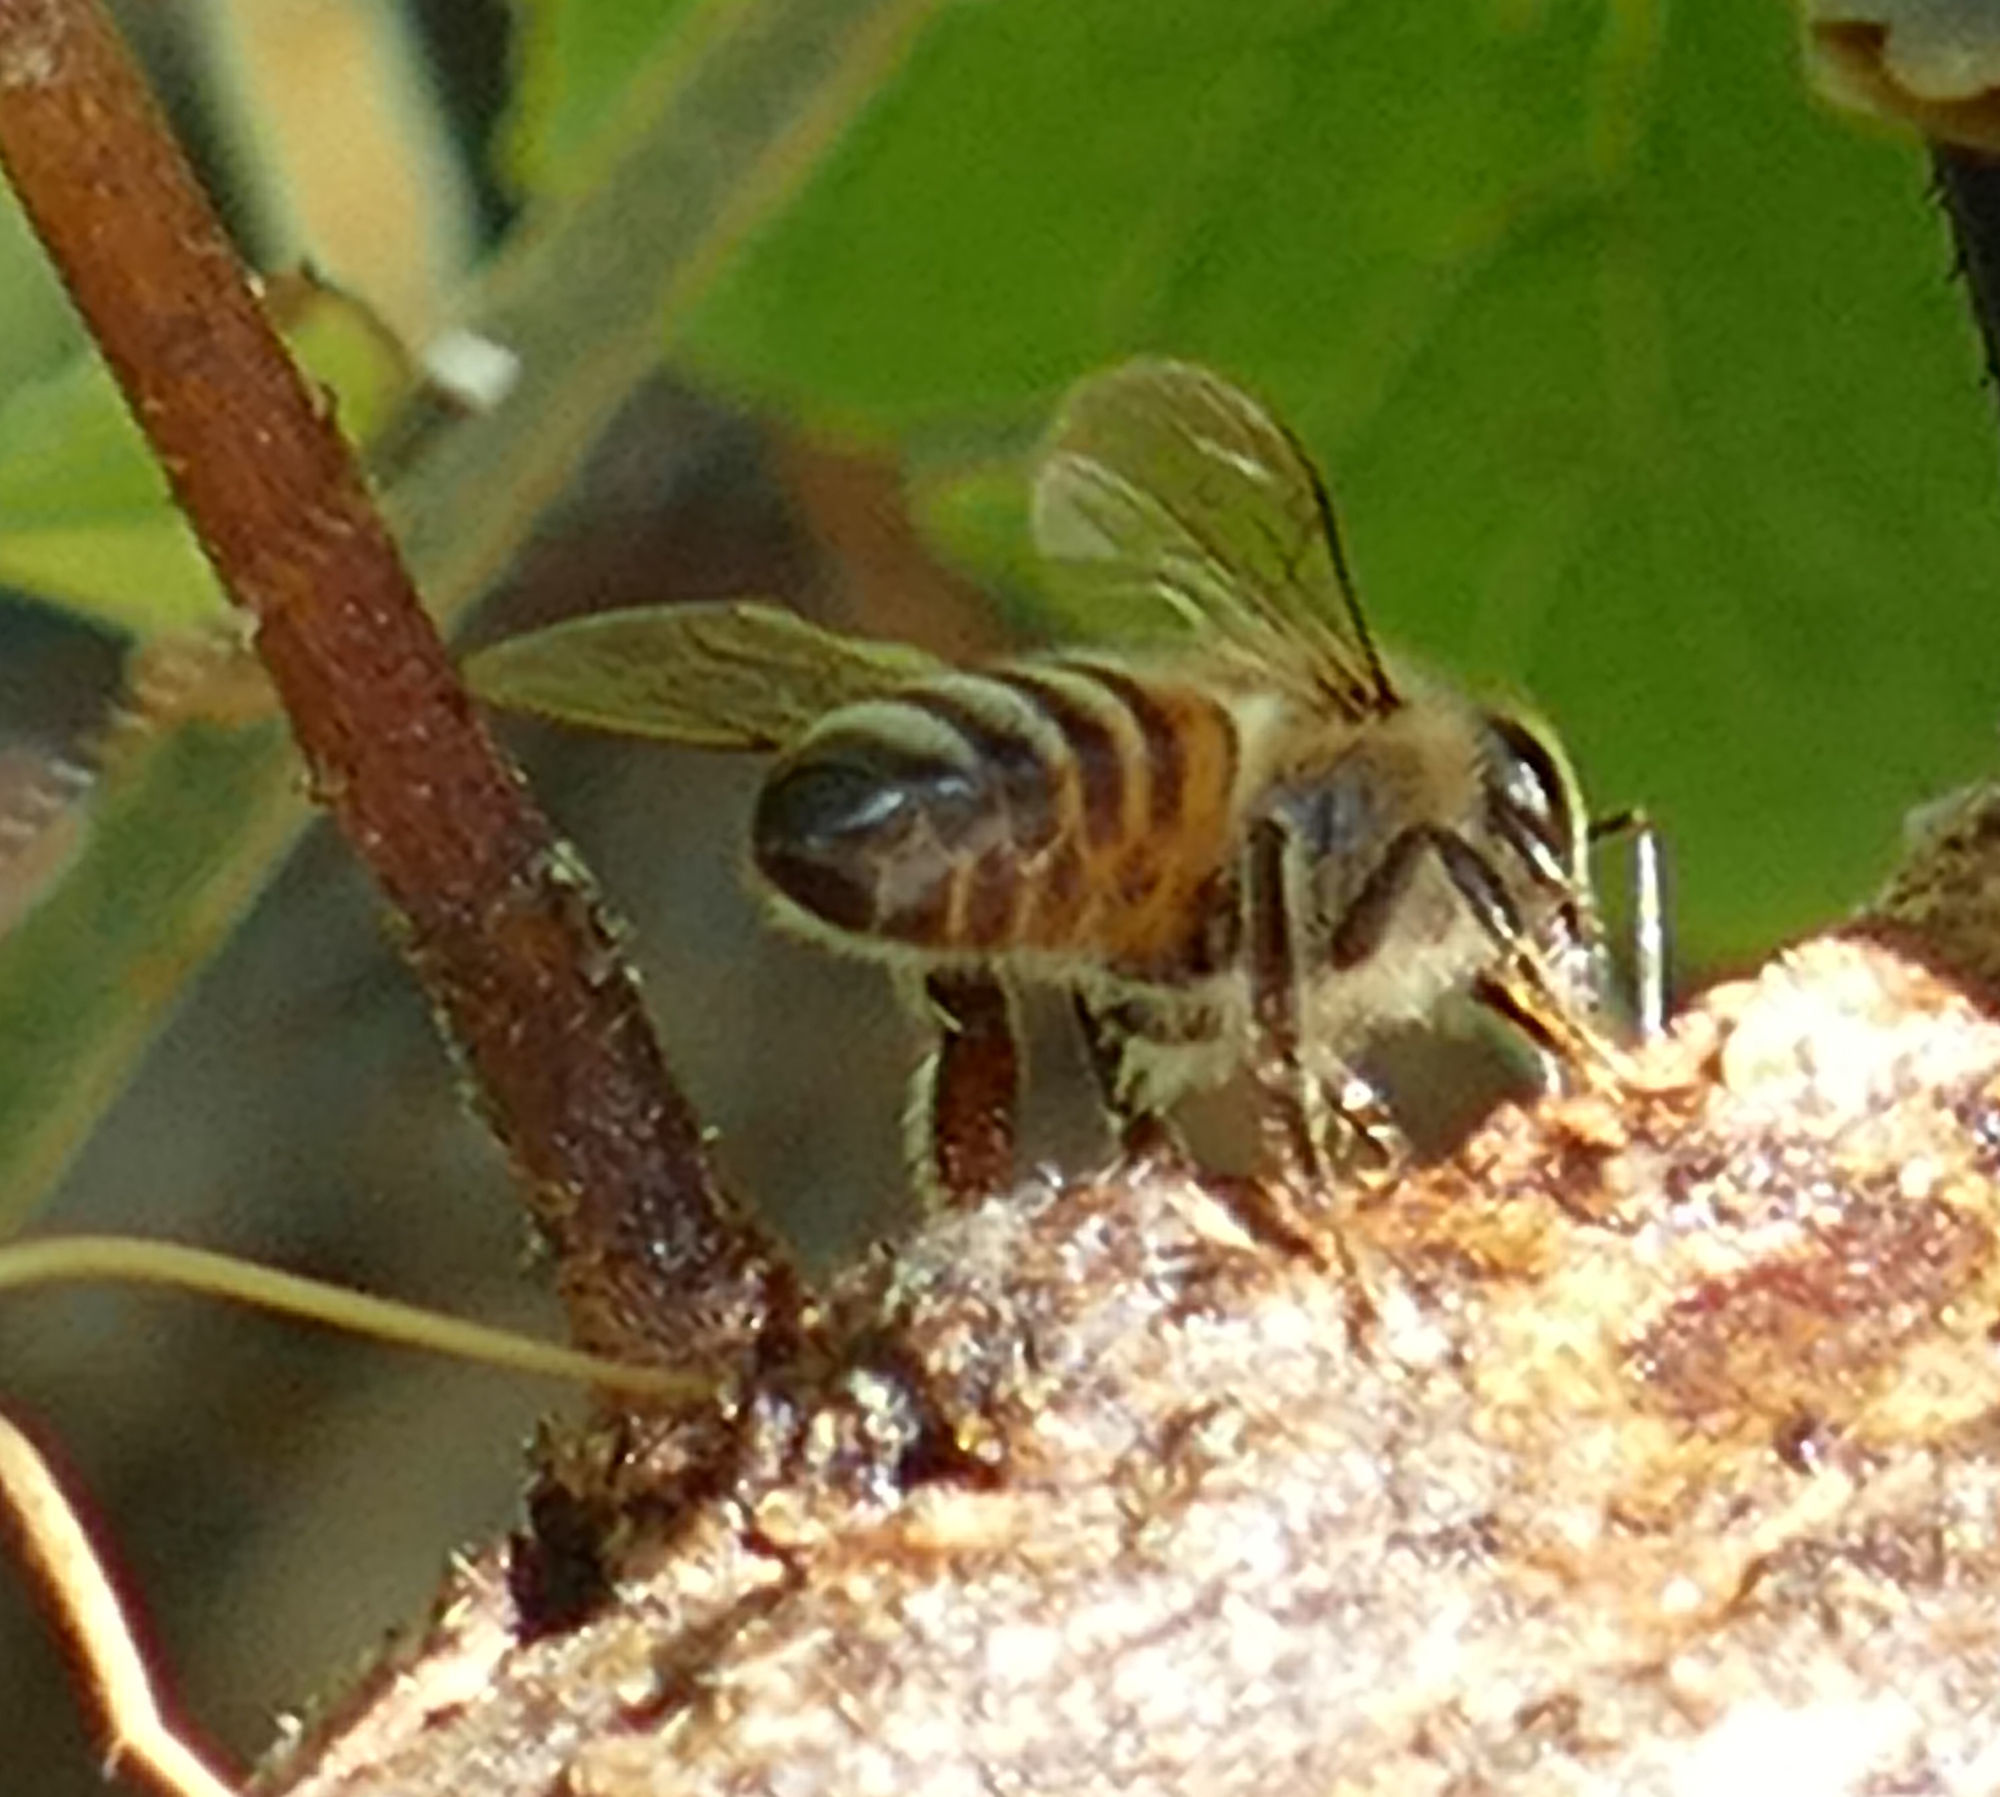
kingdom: Animalia
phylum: Arthropoda
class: Insecta
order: Hymenoptera
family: Apidae
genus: Apis
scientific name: Apis mellifera
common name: Honey bee
